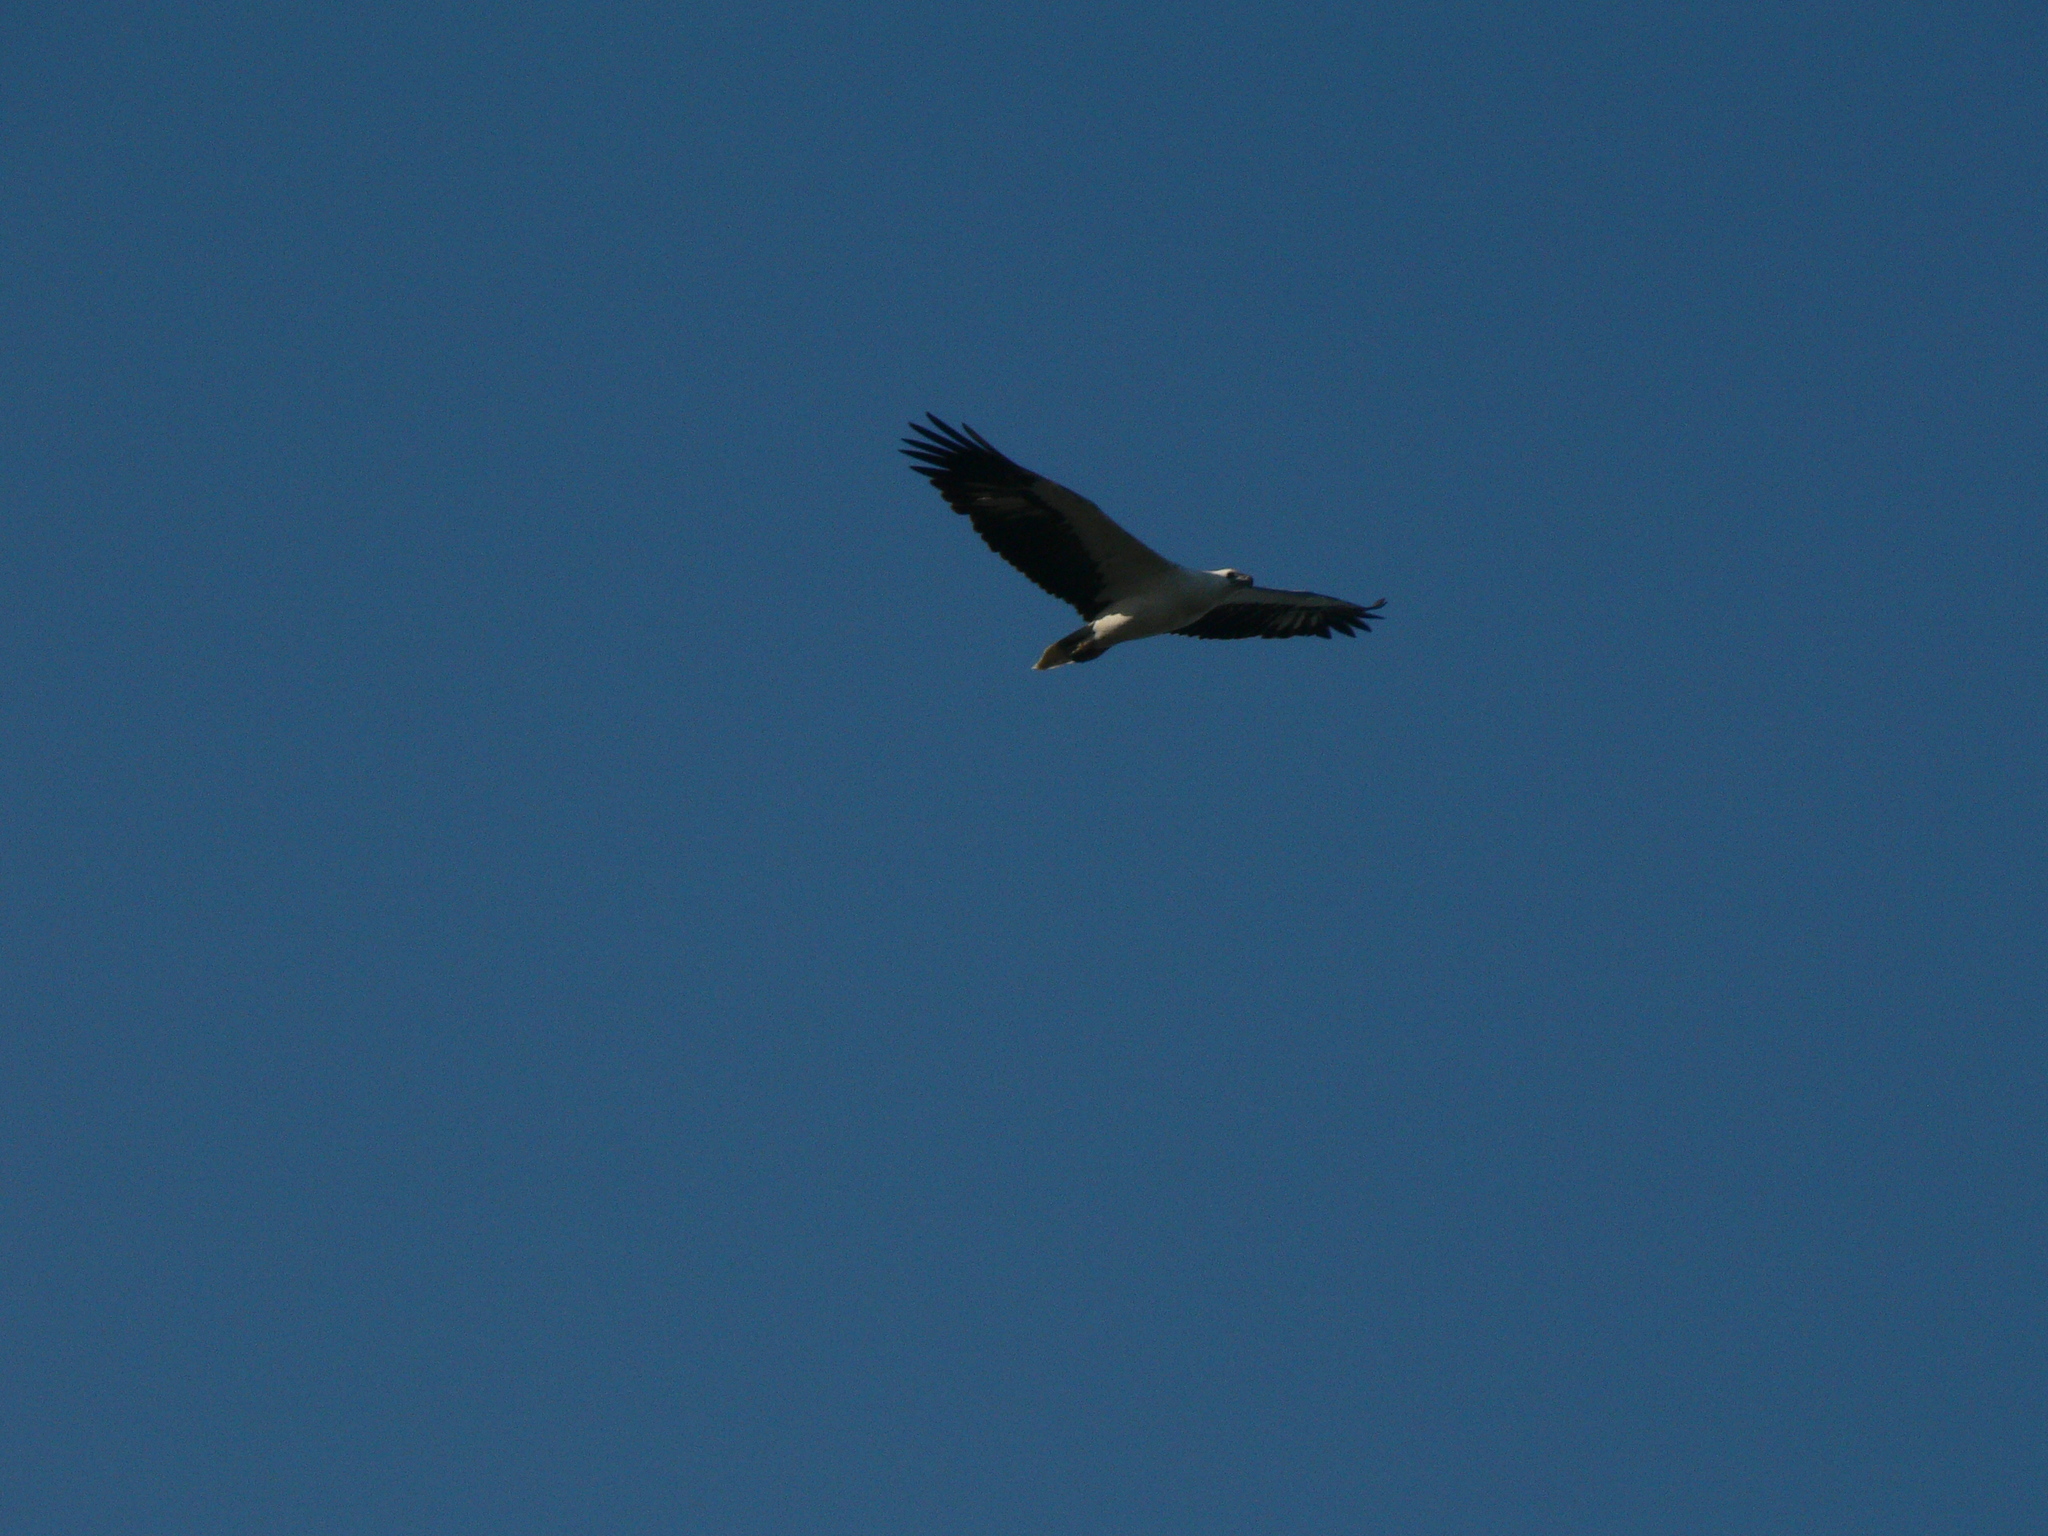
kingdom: Animalia
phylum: Chordata
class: Aves
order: Accipitriformes
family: Accipitridae
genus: Haliaeetus
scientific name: Haliaeetus leucogaster
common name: White-bellied sea eagle
